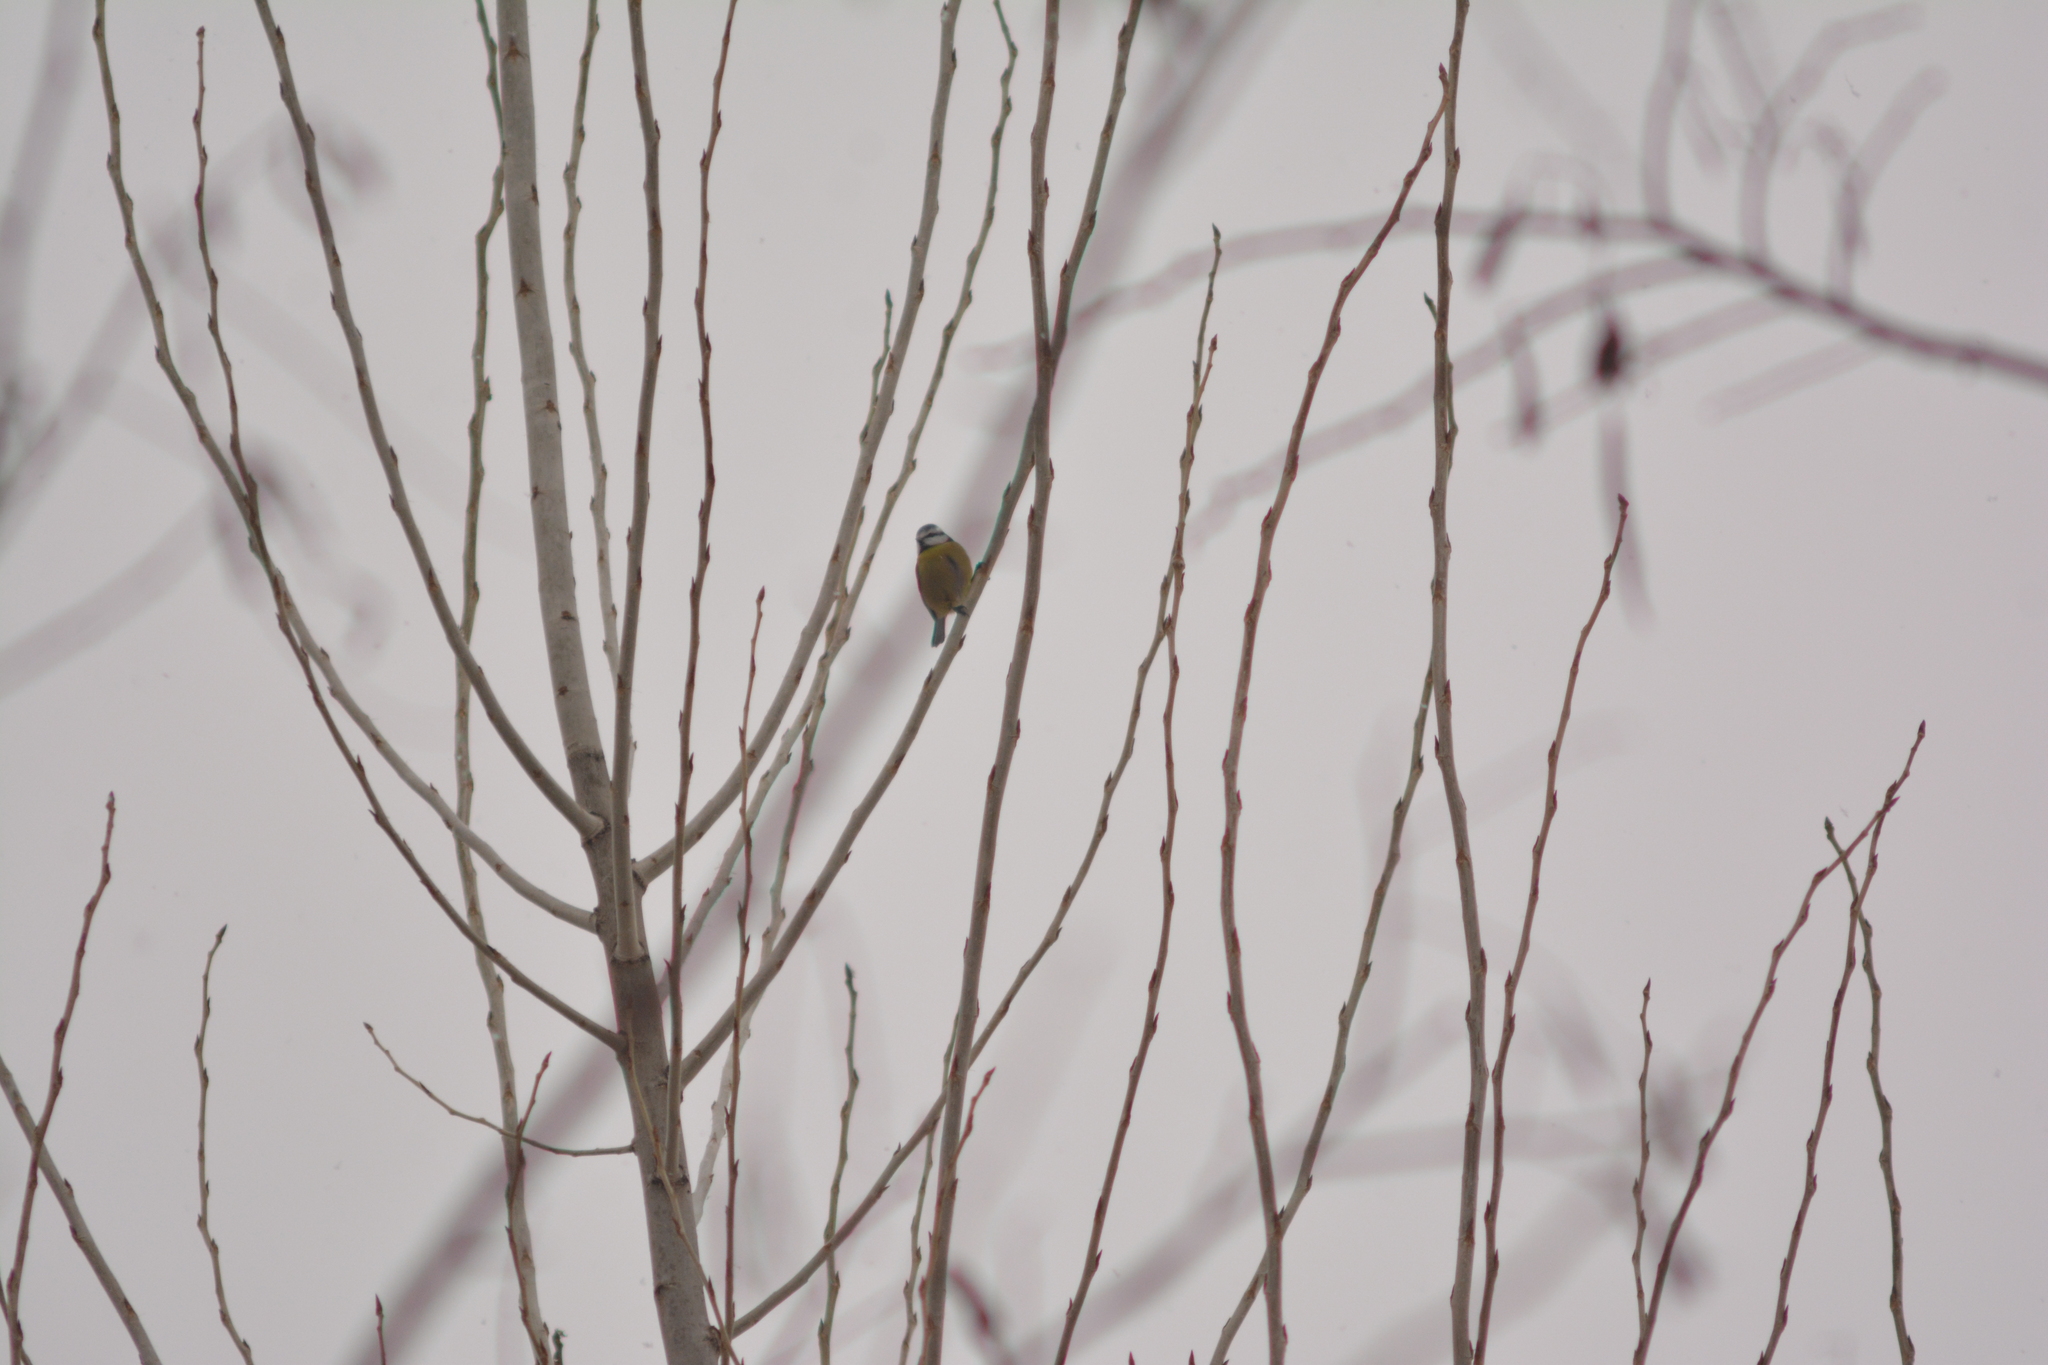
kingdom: Animalia
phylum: Chordata
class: Aves
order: Passeriformes
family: Paridae
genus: Cyanistes
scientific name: Cyanistes caeruleus
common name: Eurasian blue tit
